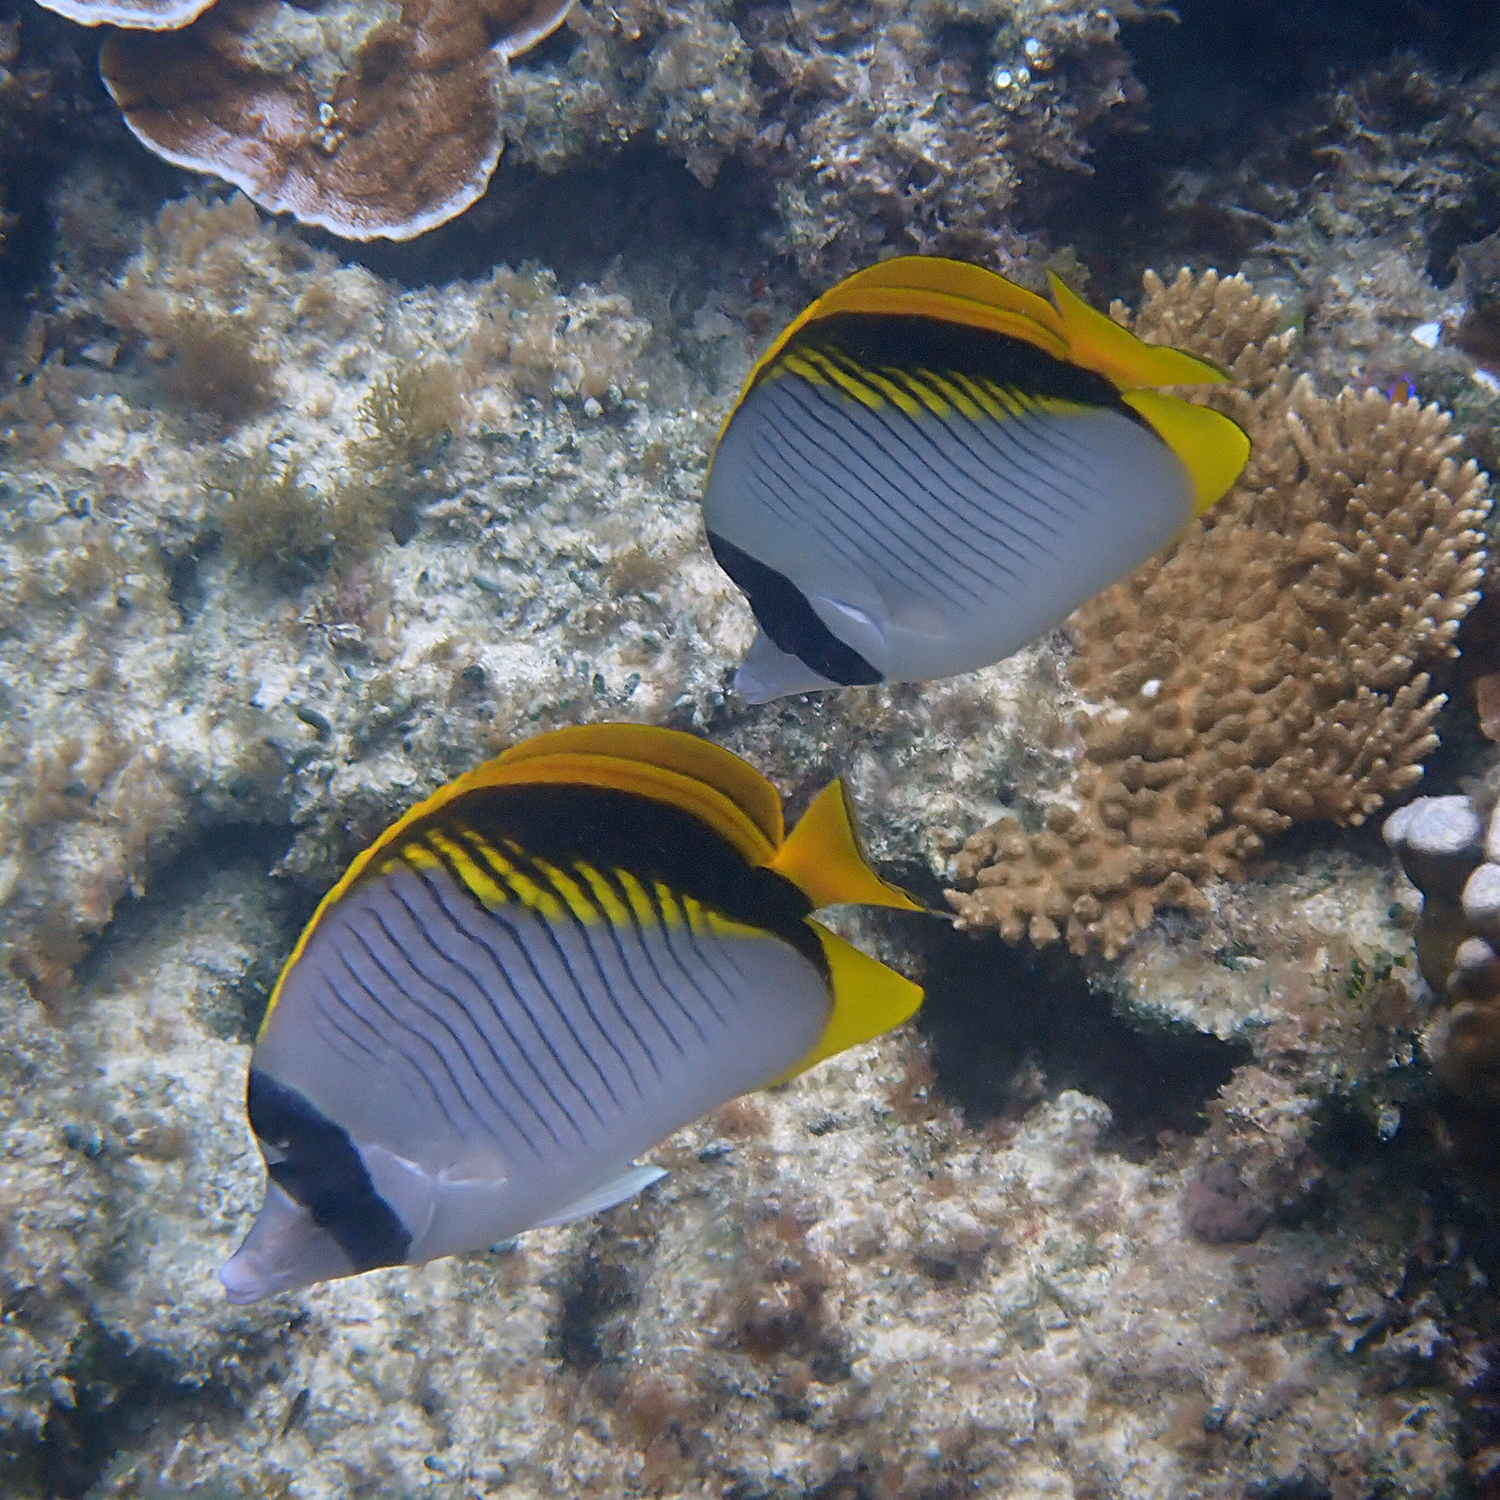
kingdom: Animalia
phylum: Chordata
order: Perciformes
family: Chaetodontidae
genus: Chaetodon
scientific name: Chaetodon lineolatus
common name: Lined butterflyfish
